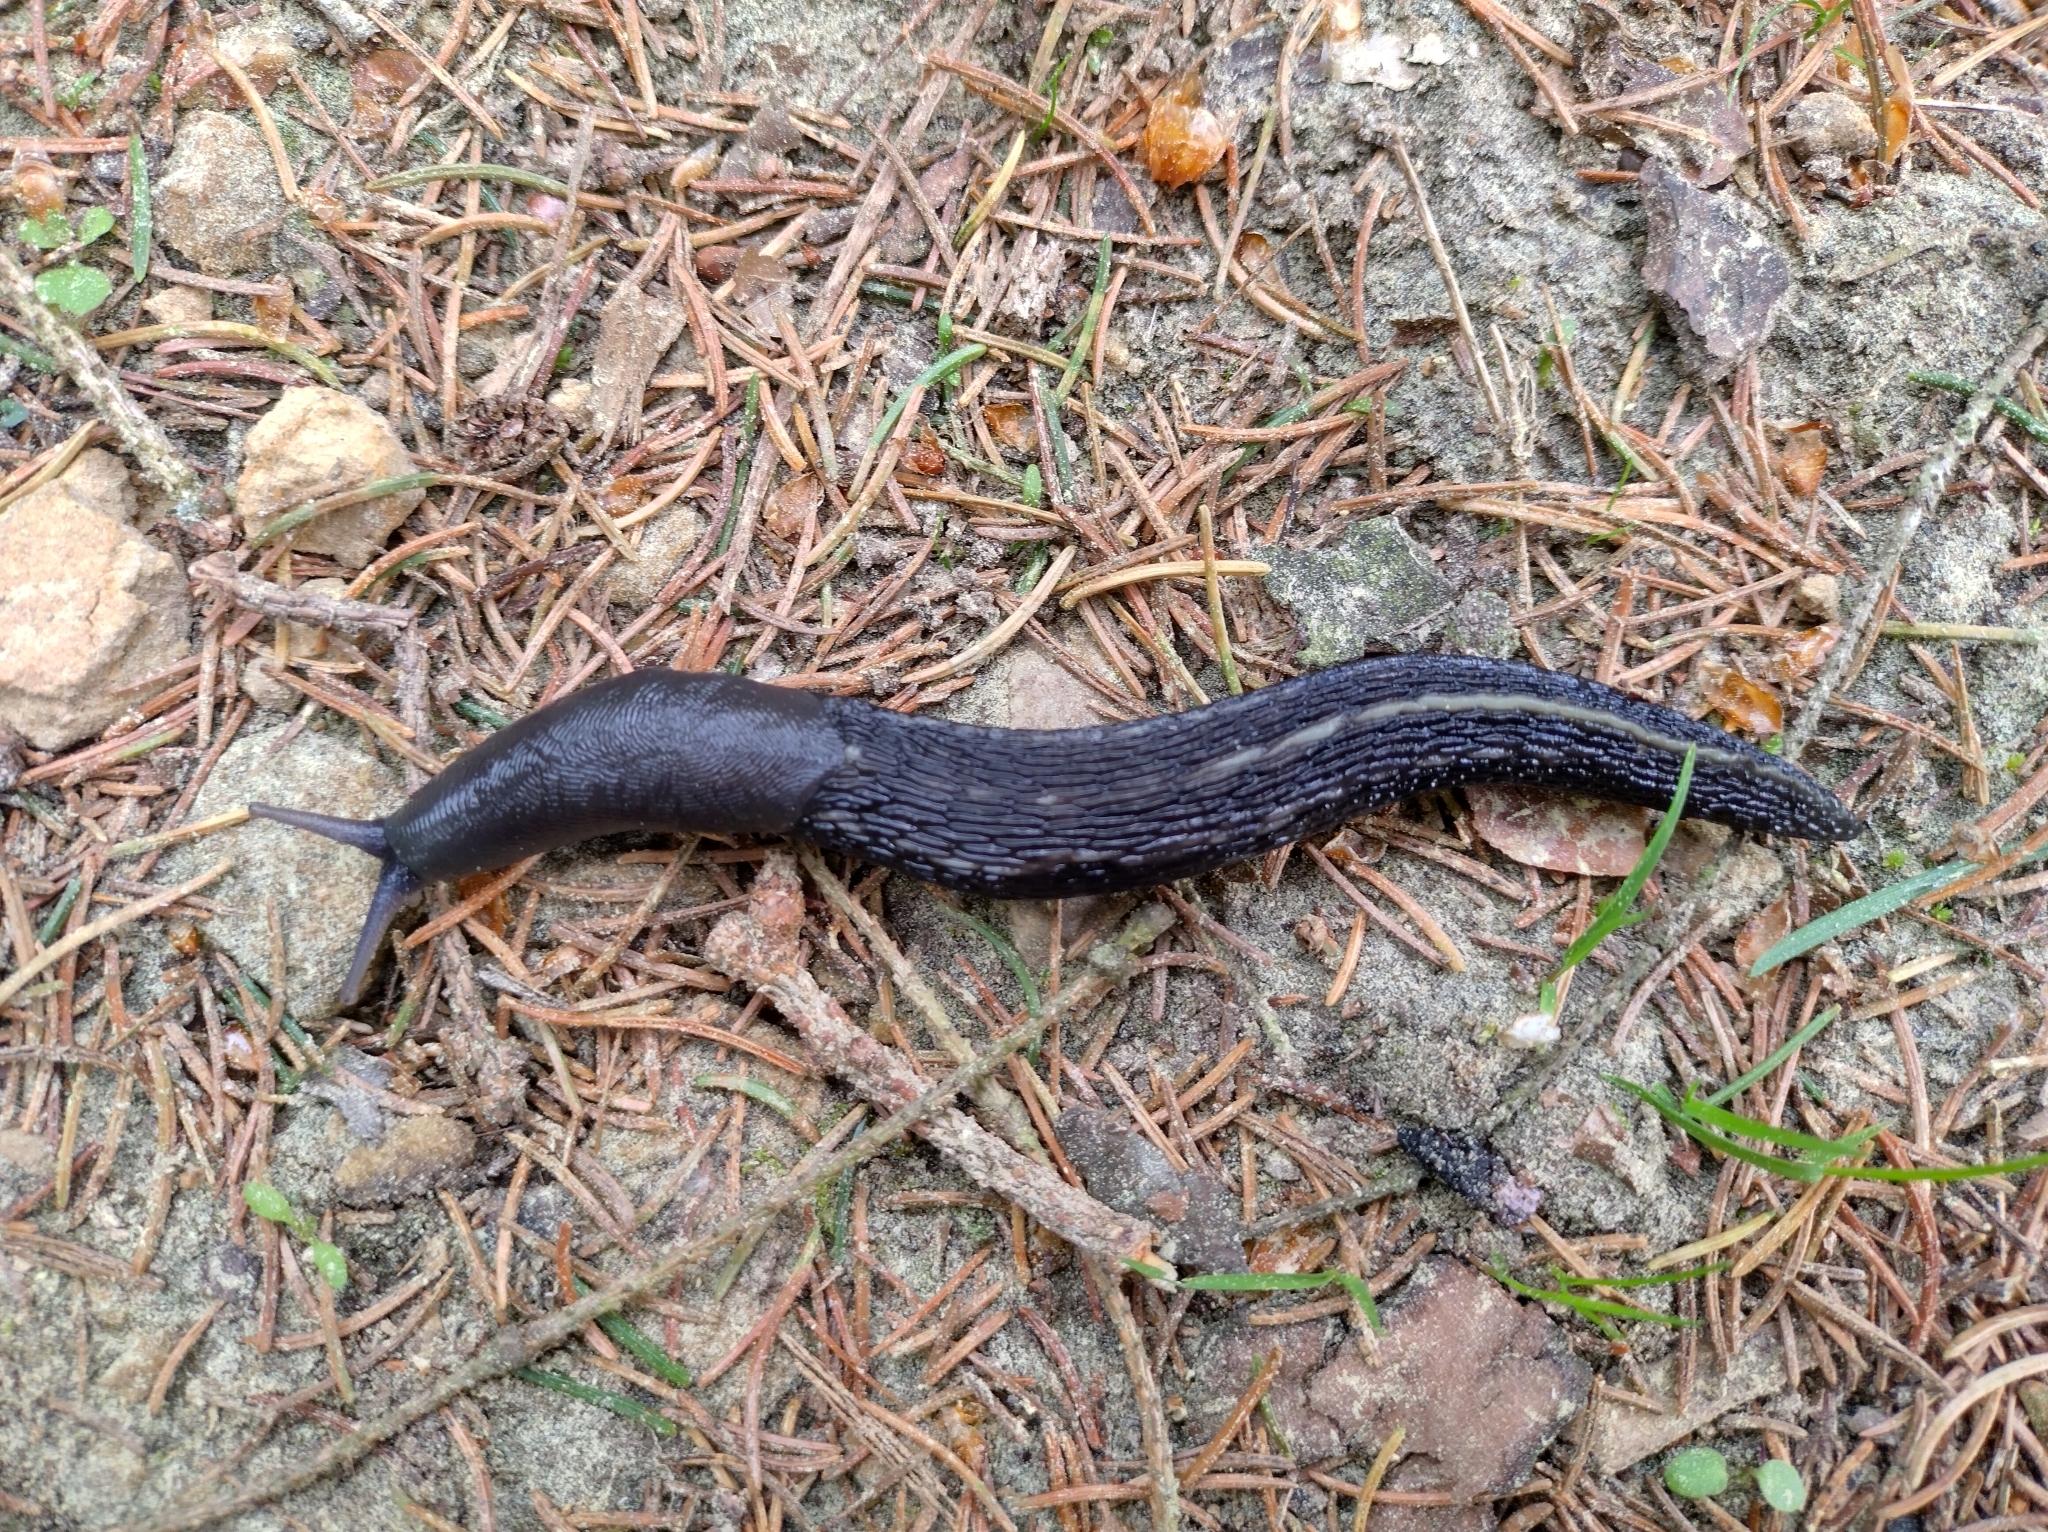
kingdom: Animalia
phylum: Mollusca
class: Gastropoda
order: Stylommatophora
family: Limacidae
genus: Limax
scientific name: Limax cinereoniger
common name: Ash-black slug
